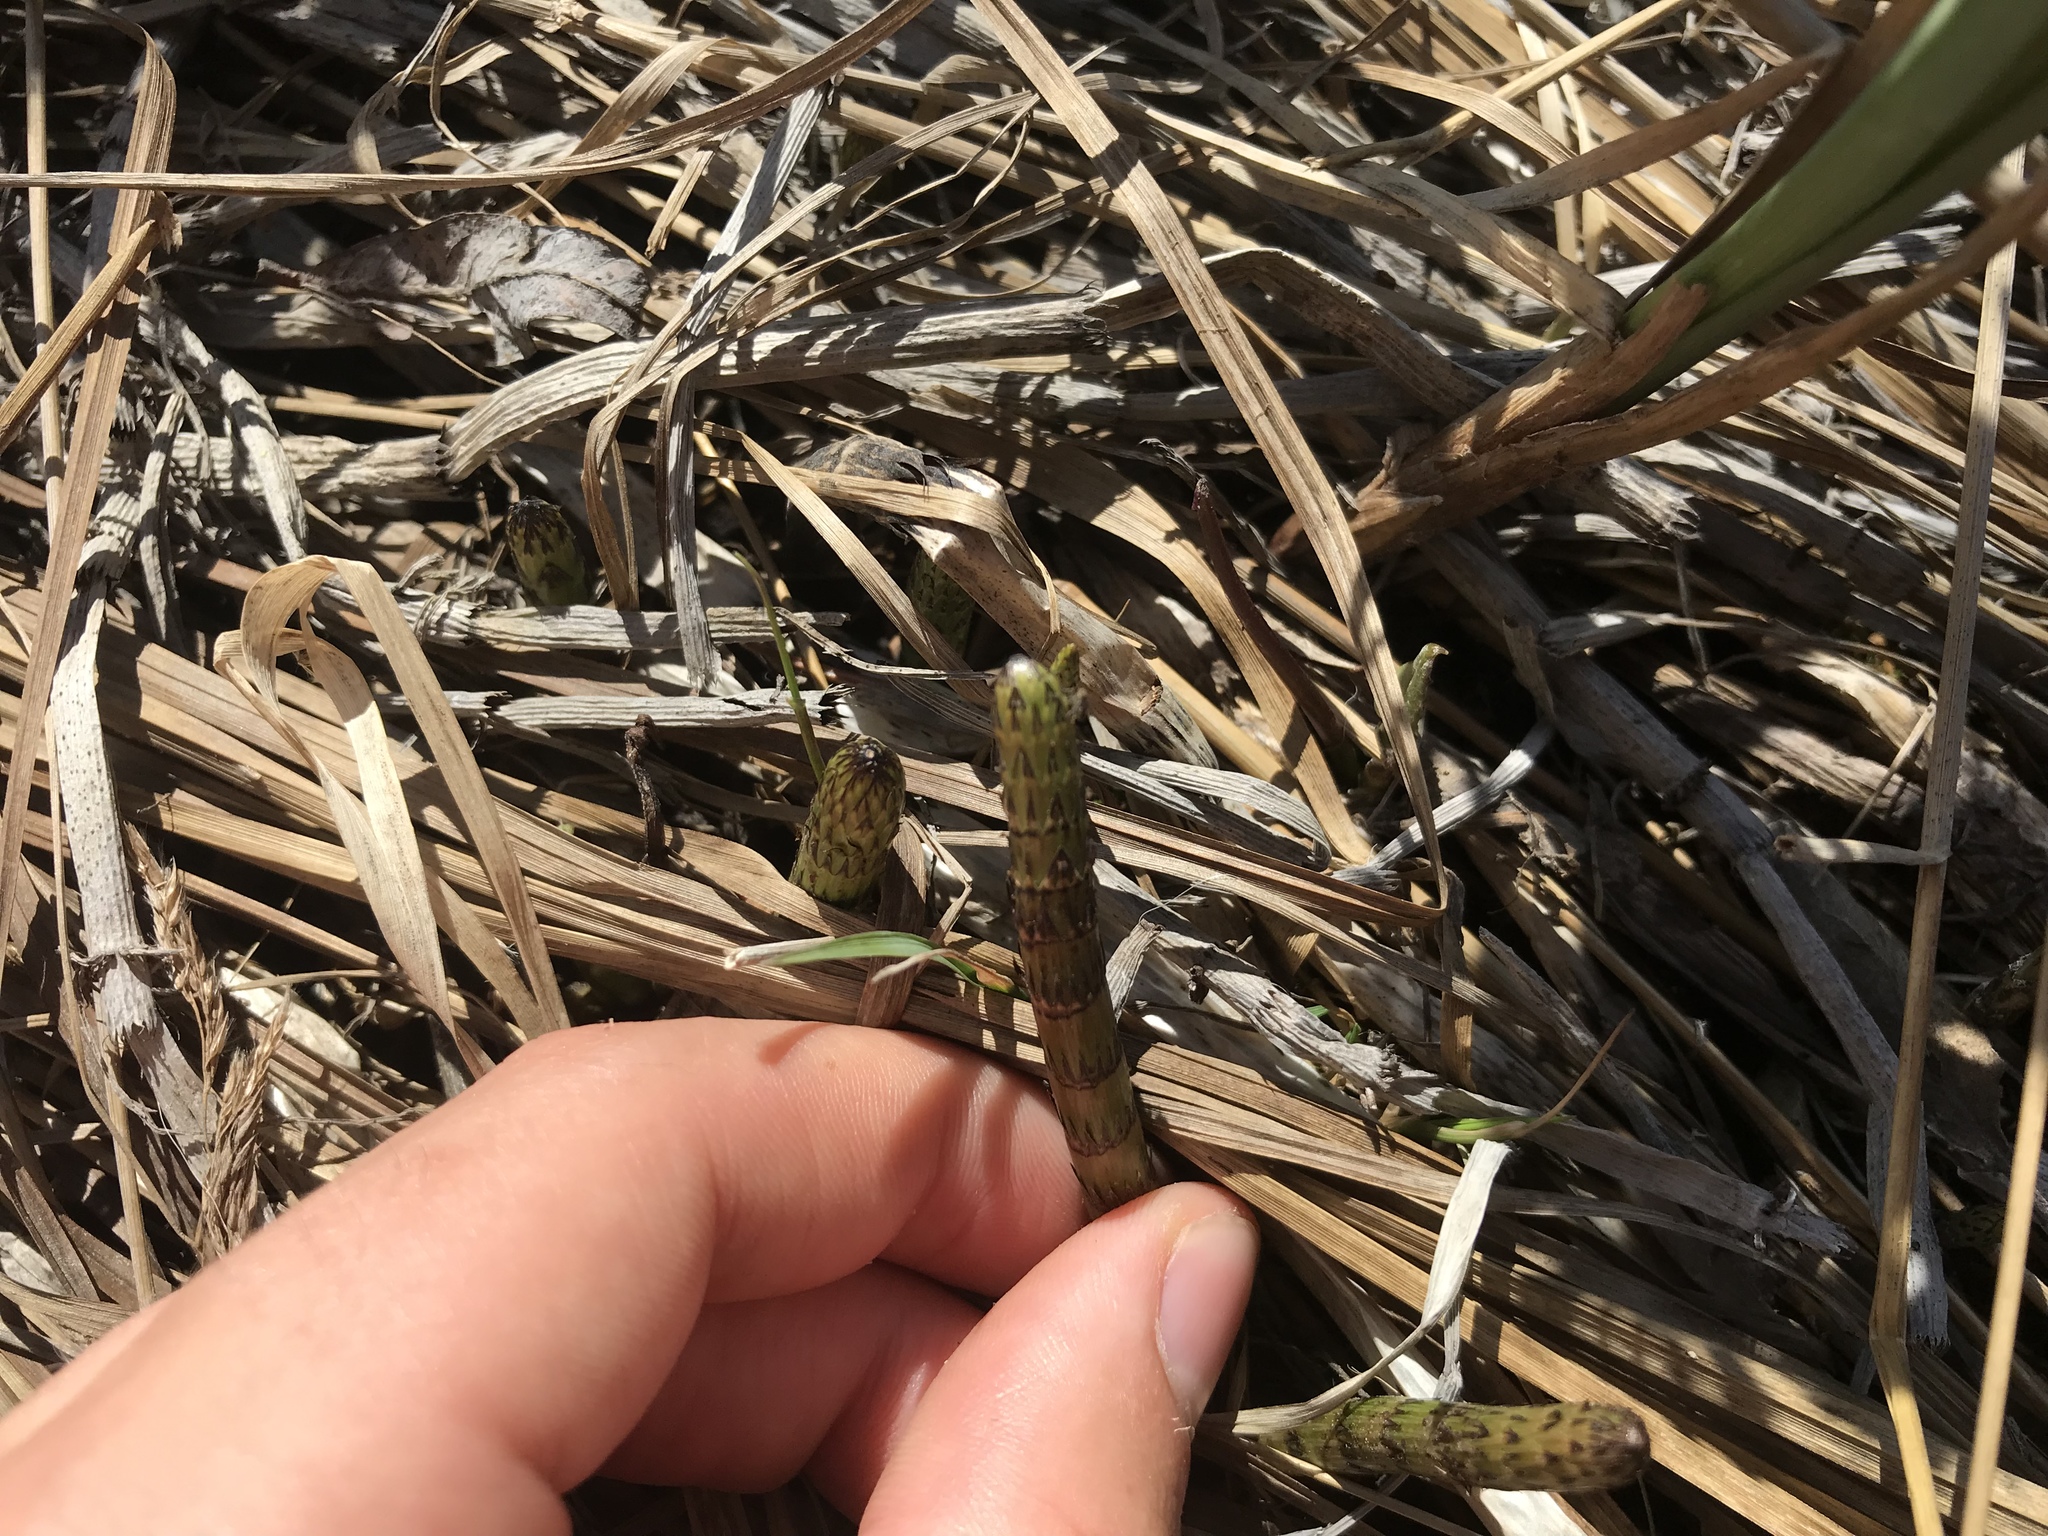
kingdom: Plantae
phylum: Tracheophyta
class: Polypodiopsida
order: Equisetales
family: Equisetaceae
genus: Equisetum
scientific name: Equisetum fluviatile
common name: Water horsetail
